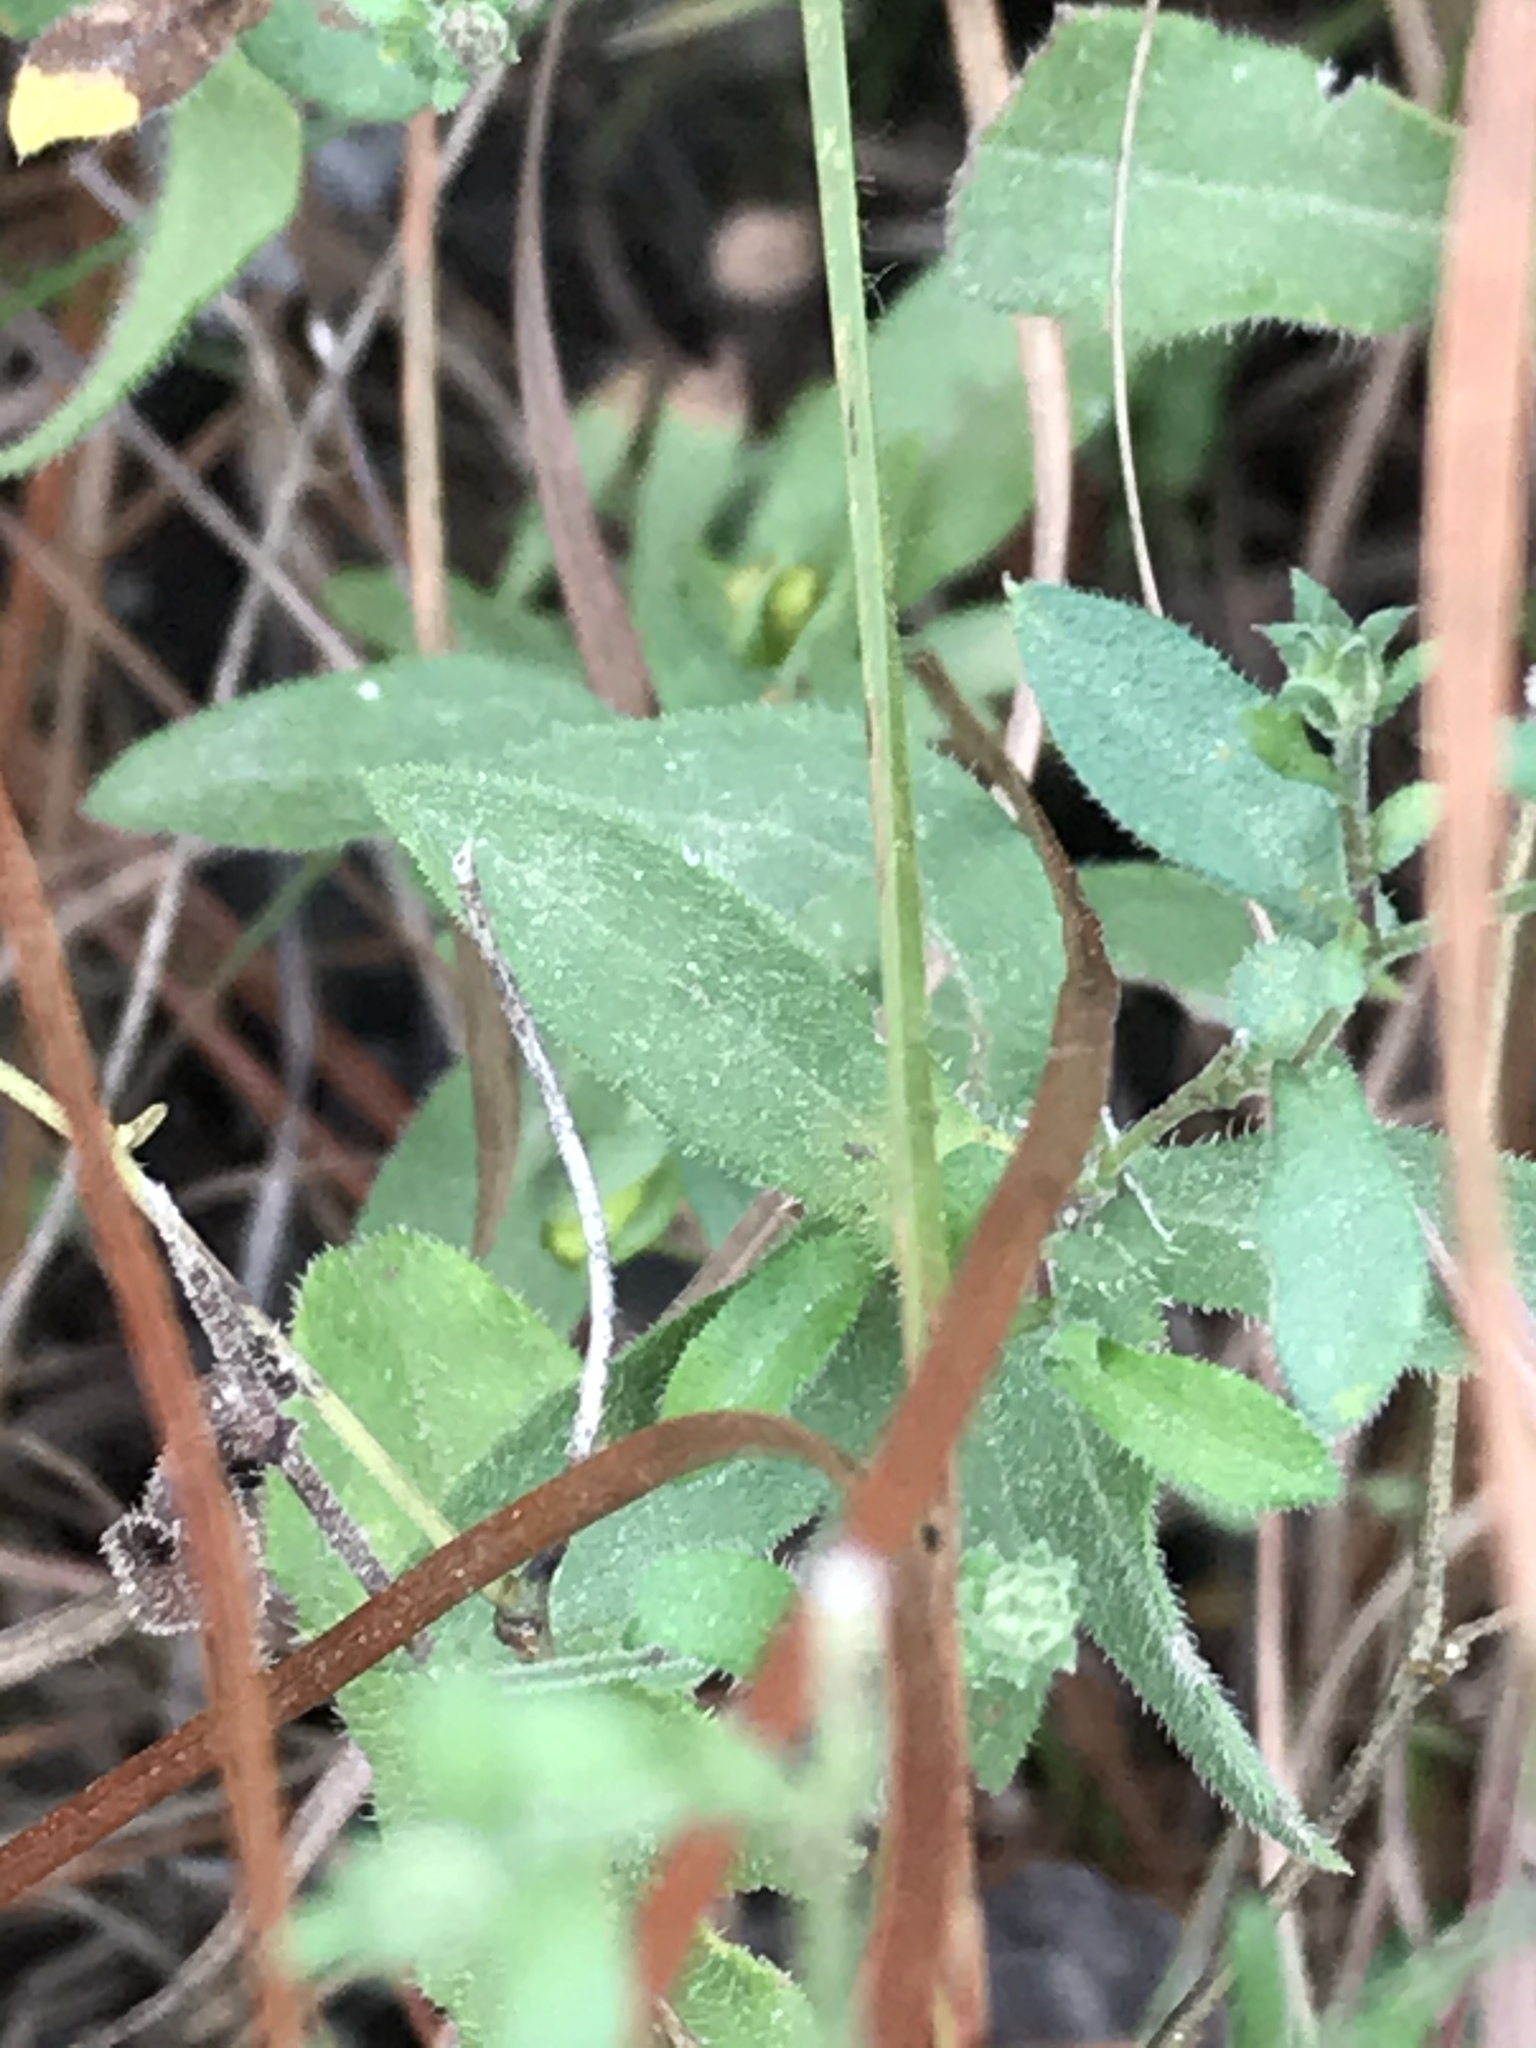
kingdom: Plantae
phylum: Tracheophyta
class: Magnoliopsida
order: Asterales
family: Asteraceae
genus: Symphyotrichum
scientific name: Symphyotrichum patens
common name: Late purple aster
